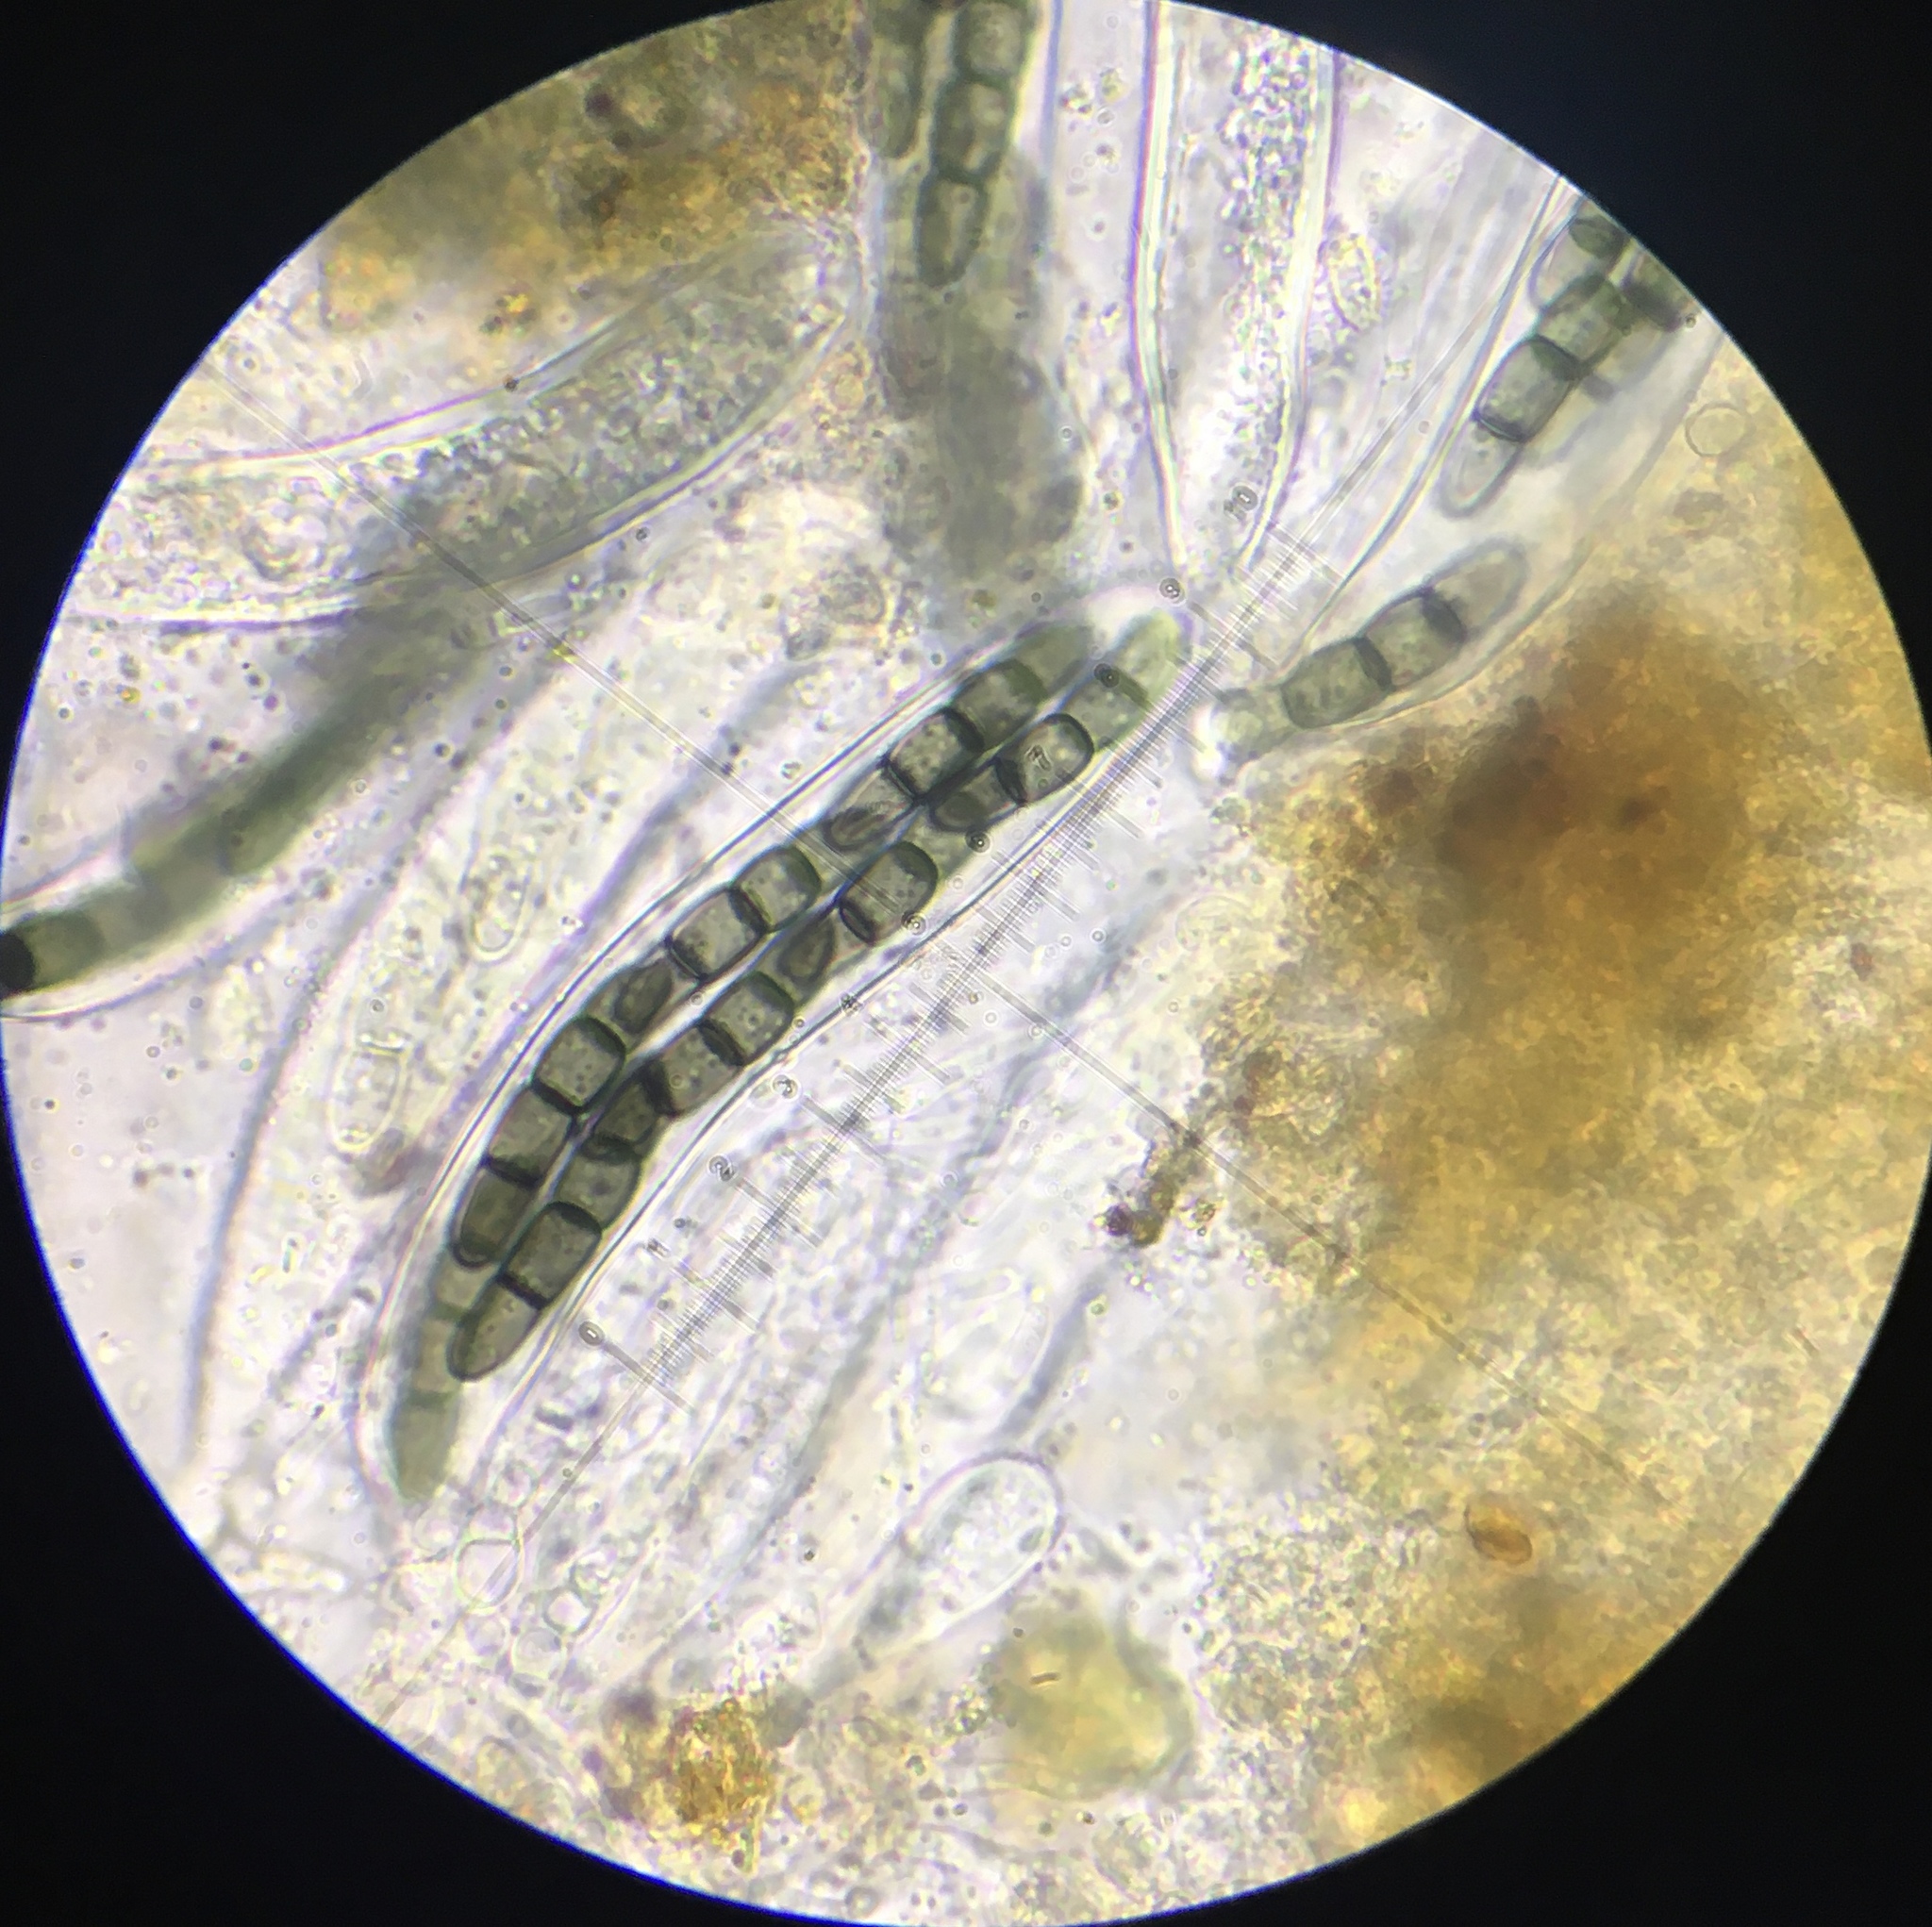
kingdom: Fungi
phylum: Ascomycota
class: Dothideomycetes
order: Pleosporales
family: Sporormiaceae
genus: Sporormiella
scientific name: Sporormiella isomera
